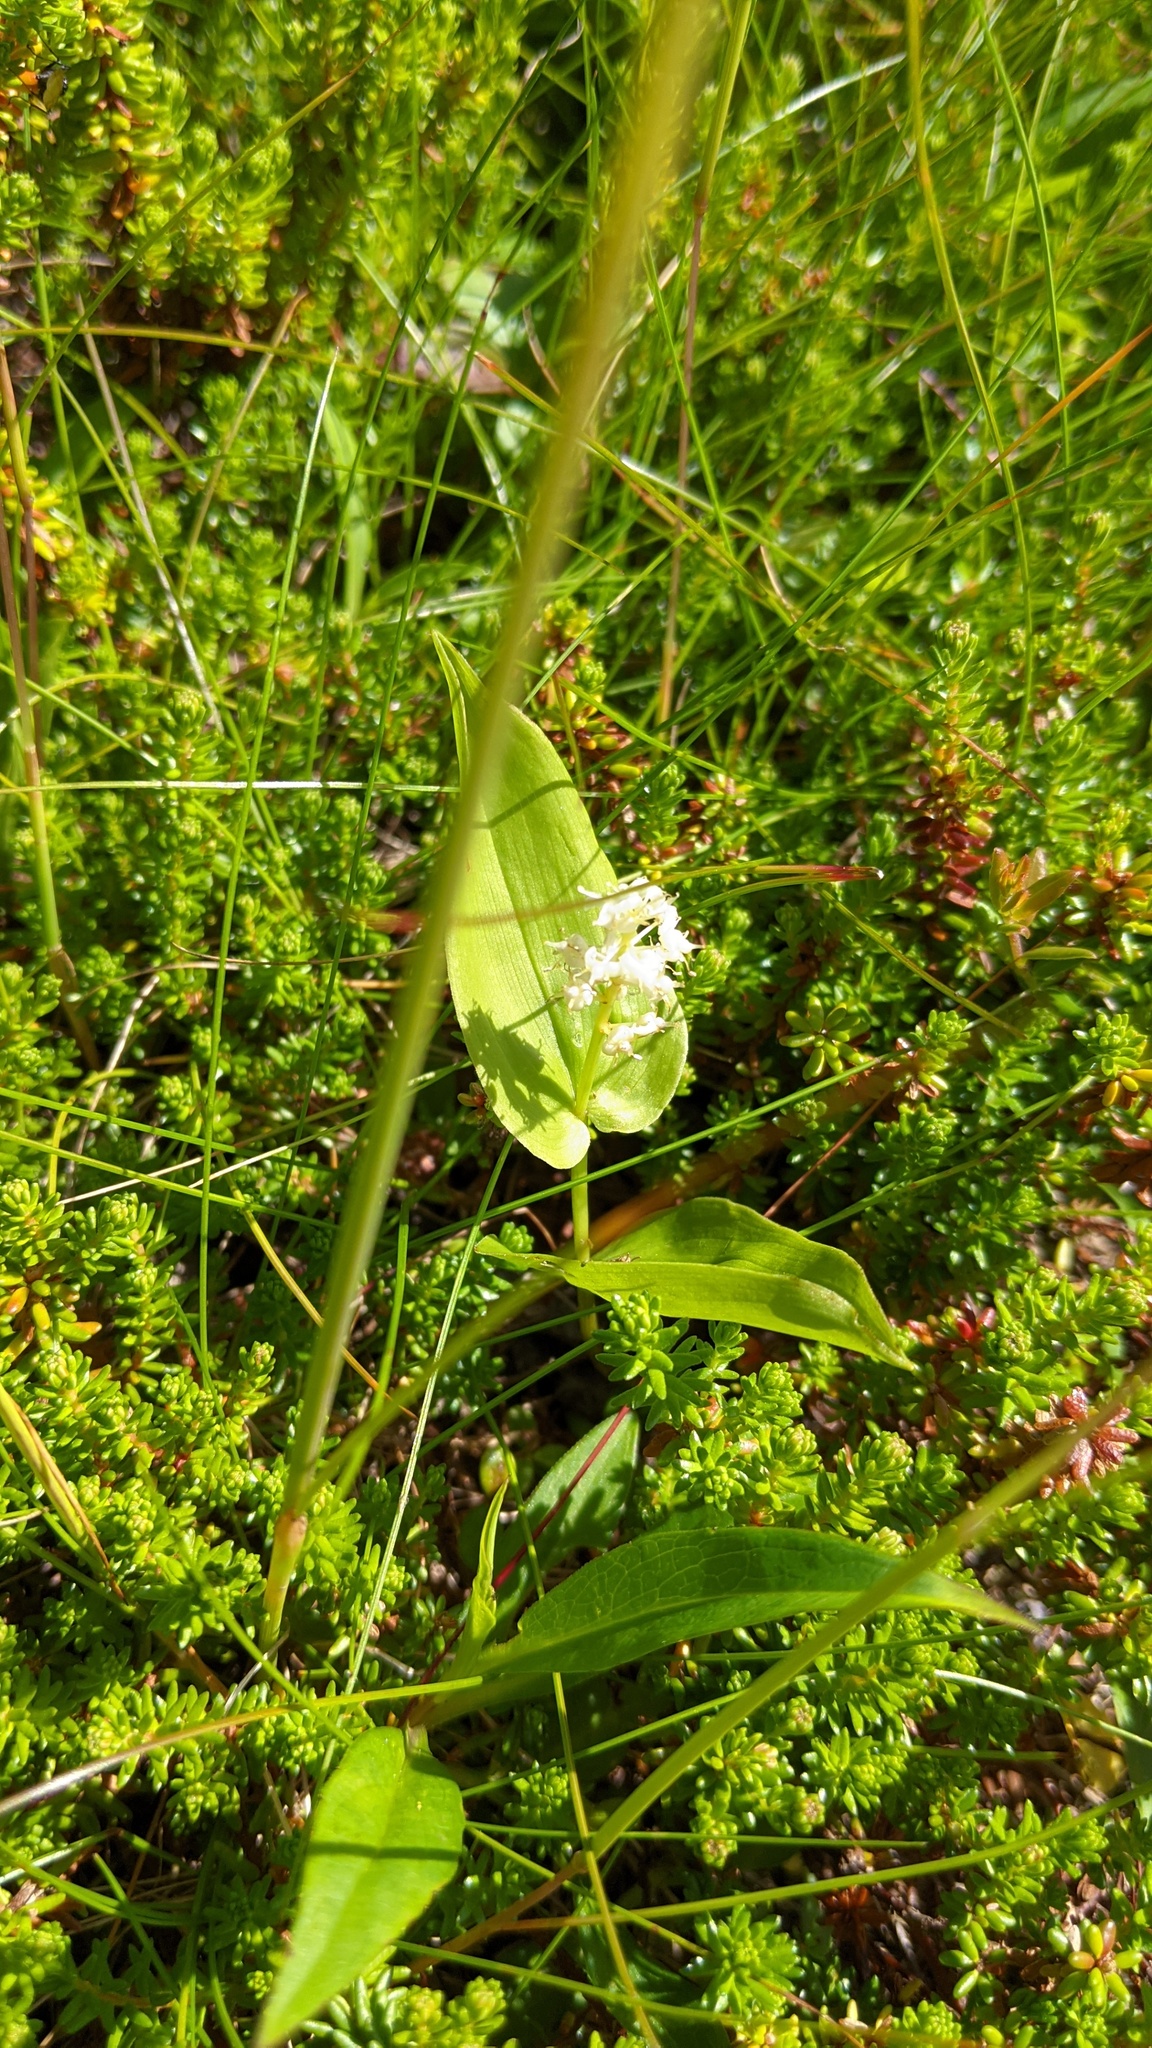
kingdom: Plantae
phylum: Tracheophyta
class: Liliopsida
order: Asparagales
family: Asparagaceae
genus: Maianthemum
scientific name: Maianthemum canadense
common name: False lily-of-the-valley
